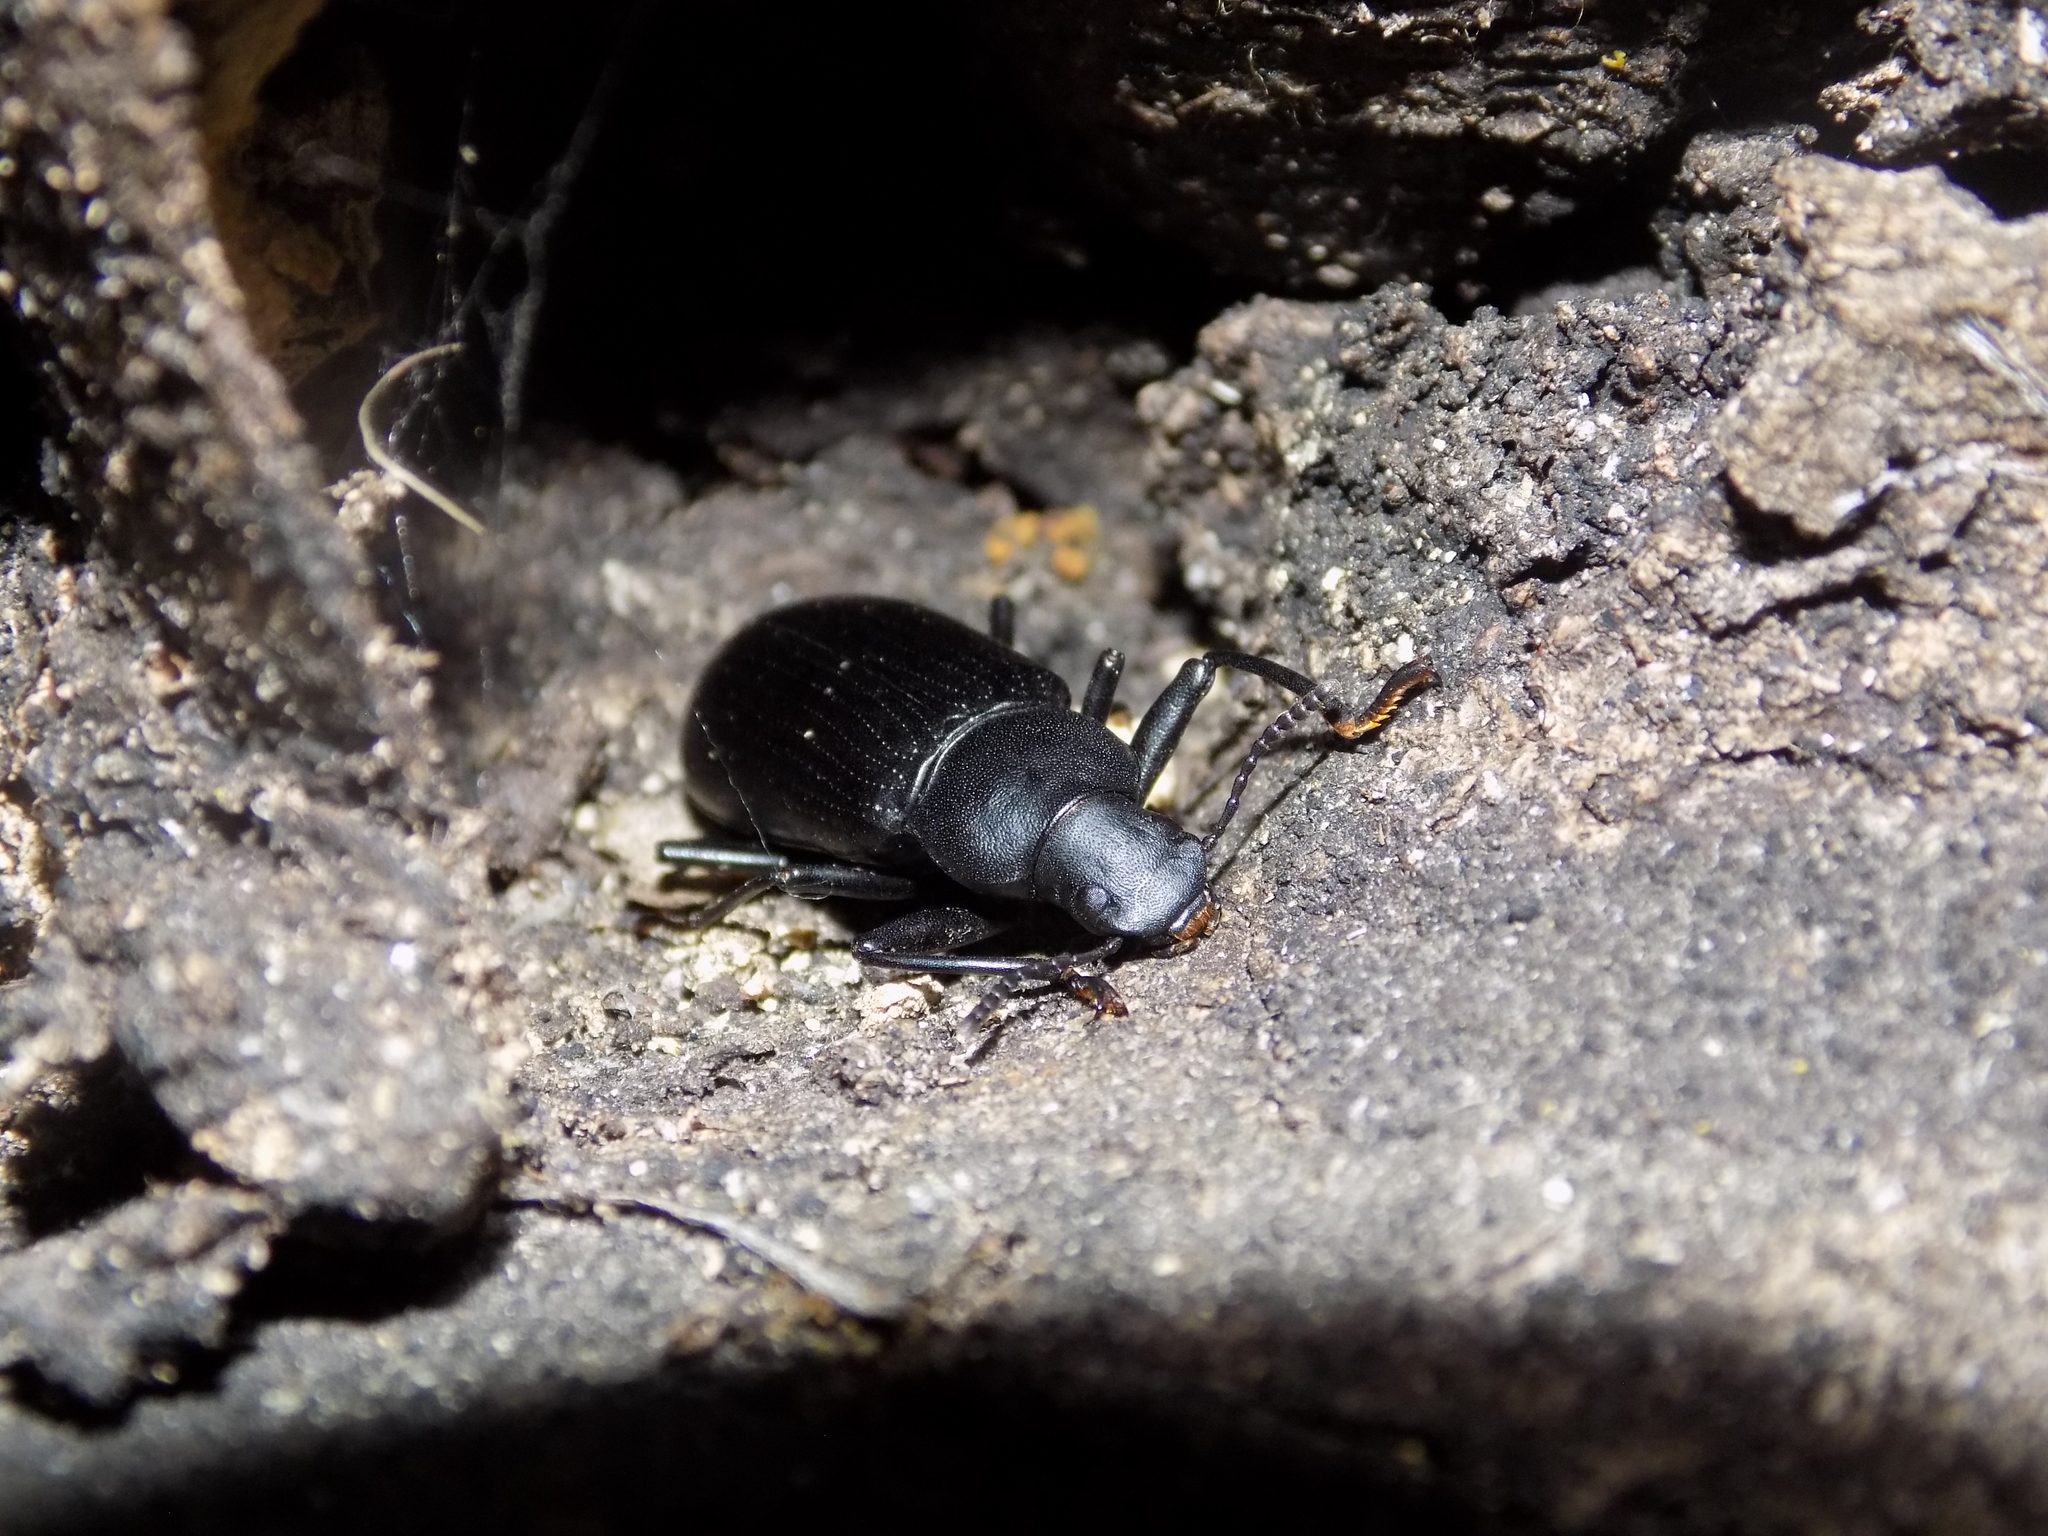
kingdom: Animalia
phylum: Arthropoda
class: Insecta
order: Coleoptera
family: Tenebrionidae
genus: Alobates
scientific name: Alobates
